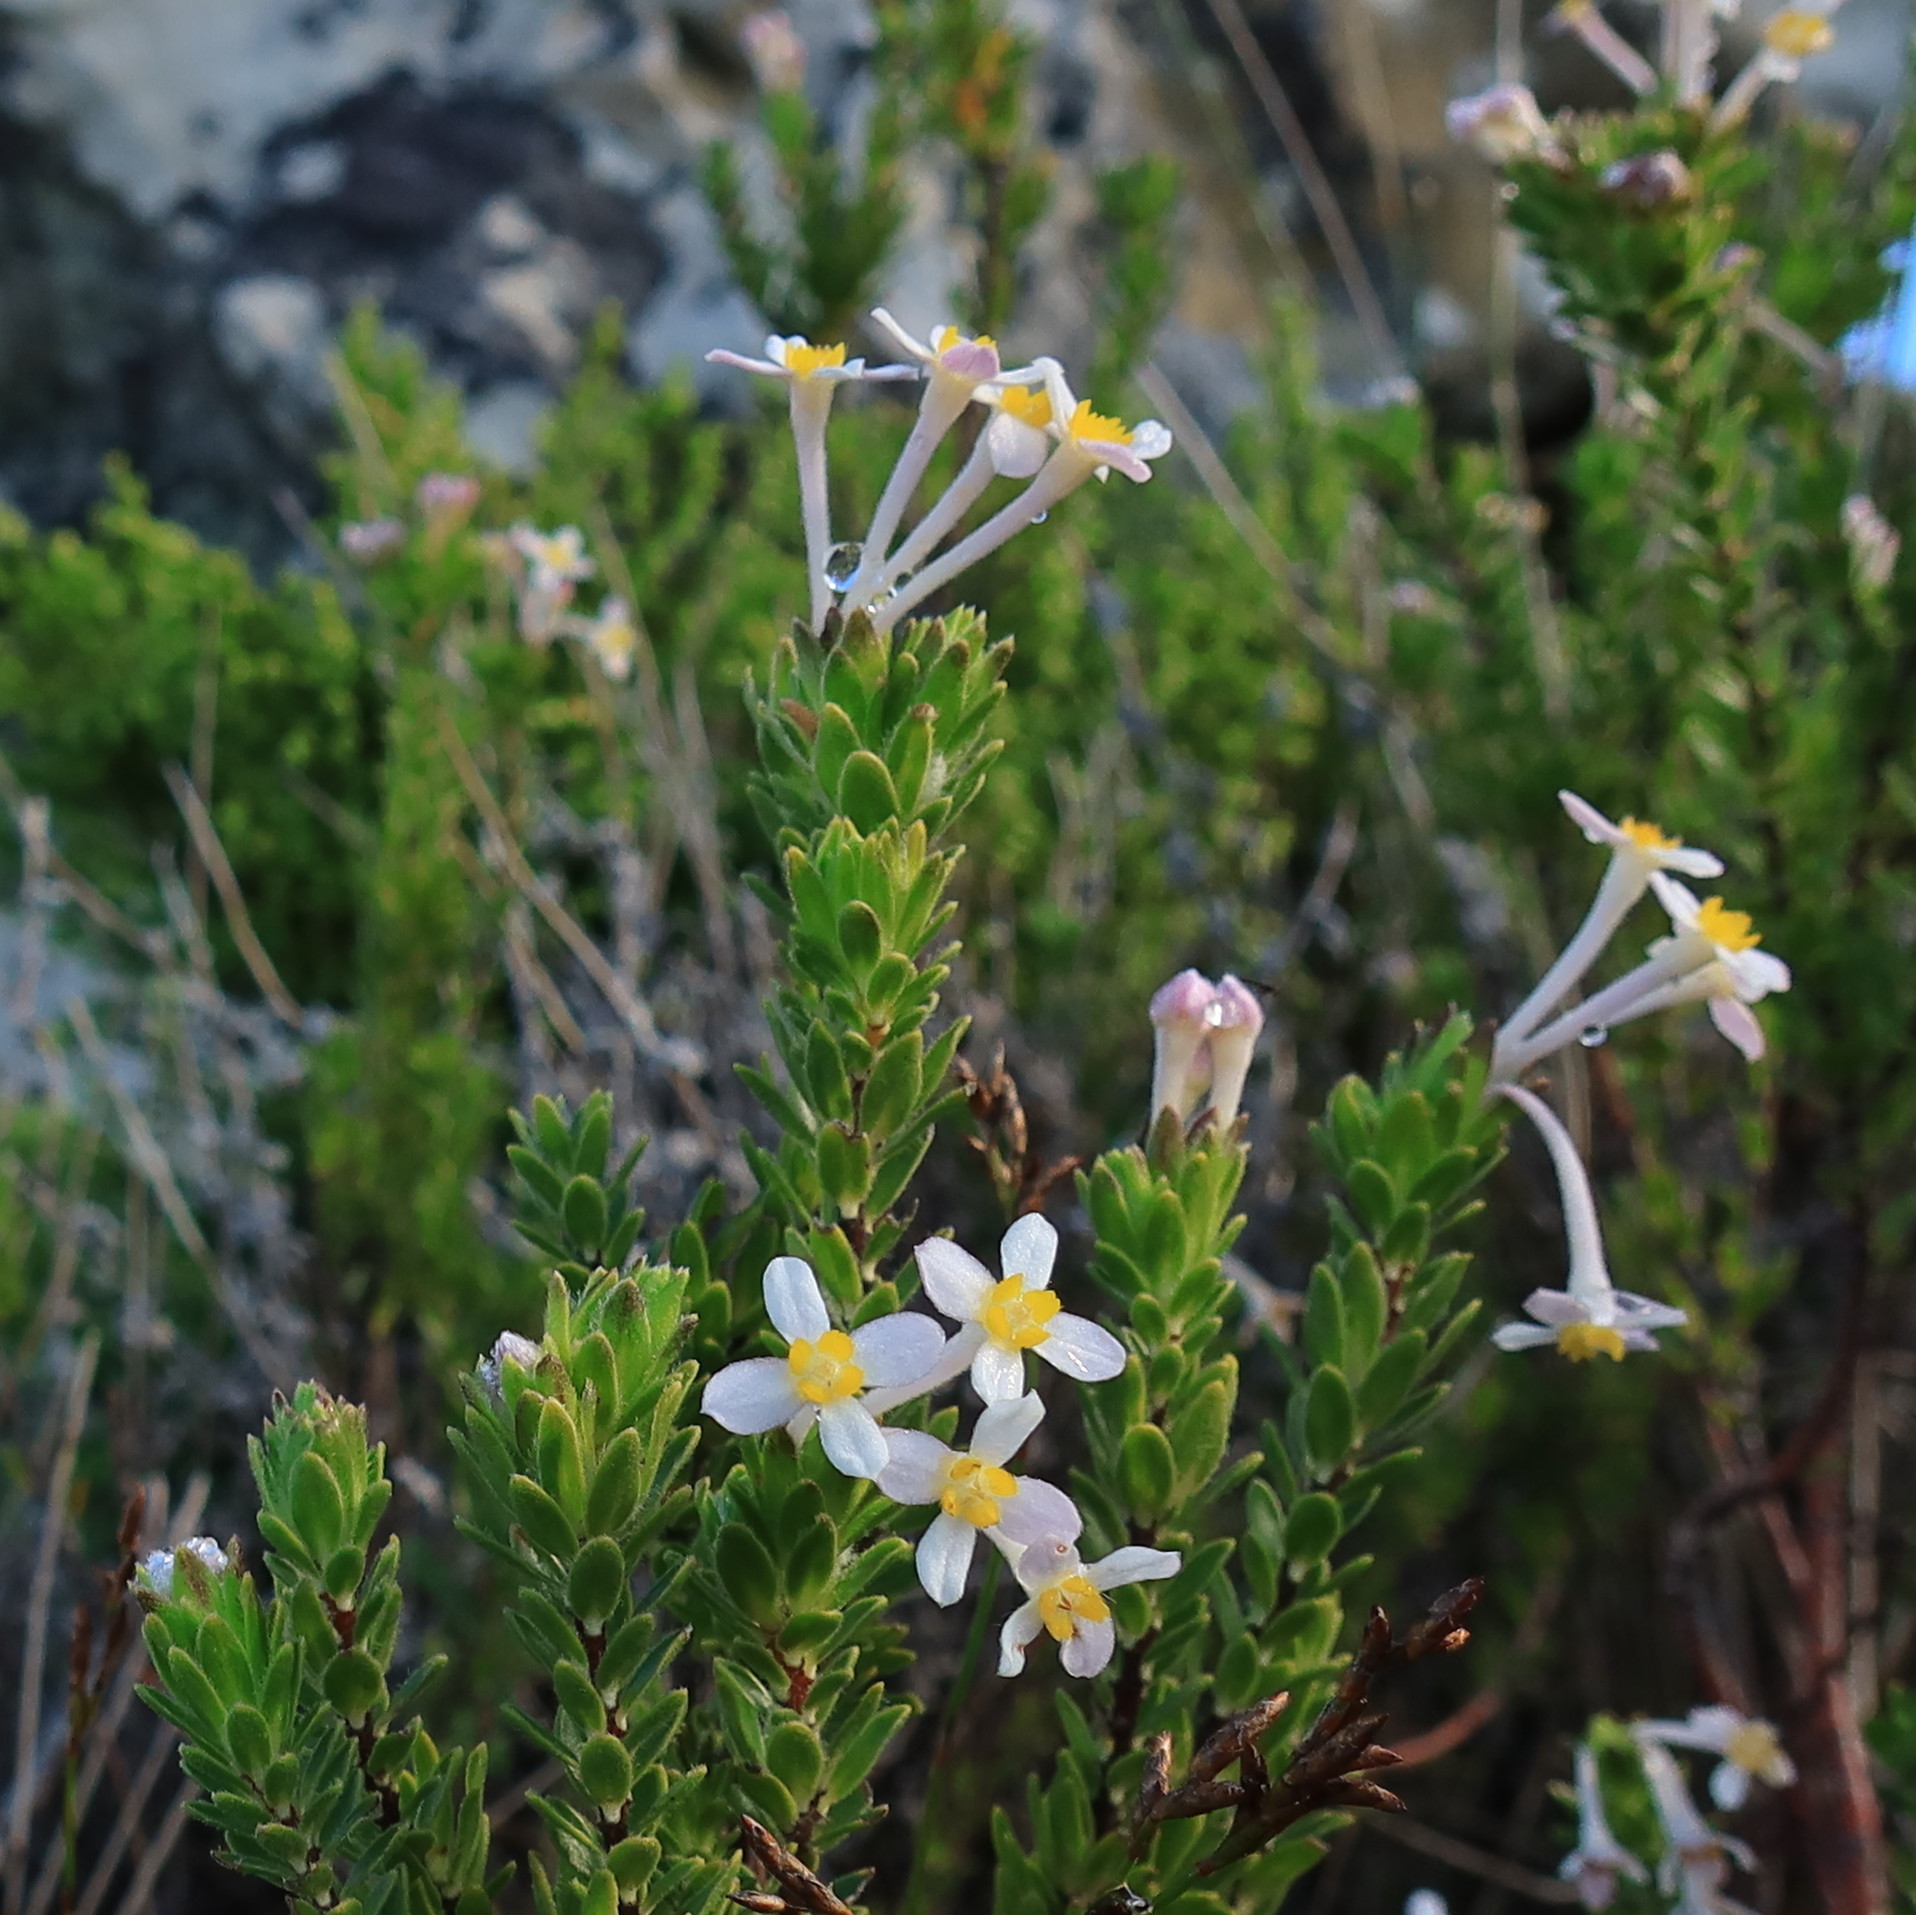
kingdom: Plantae
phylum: Tracheophyta
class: Magnoliopsida
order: Malvales
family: Thymelaeaceae
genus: Gnidia
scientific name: Gnidia tomentosa
